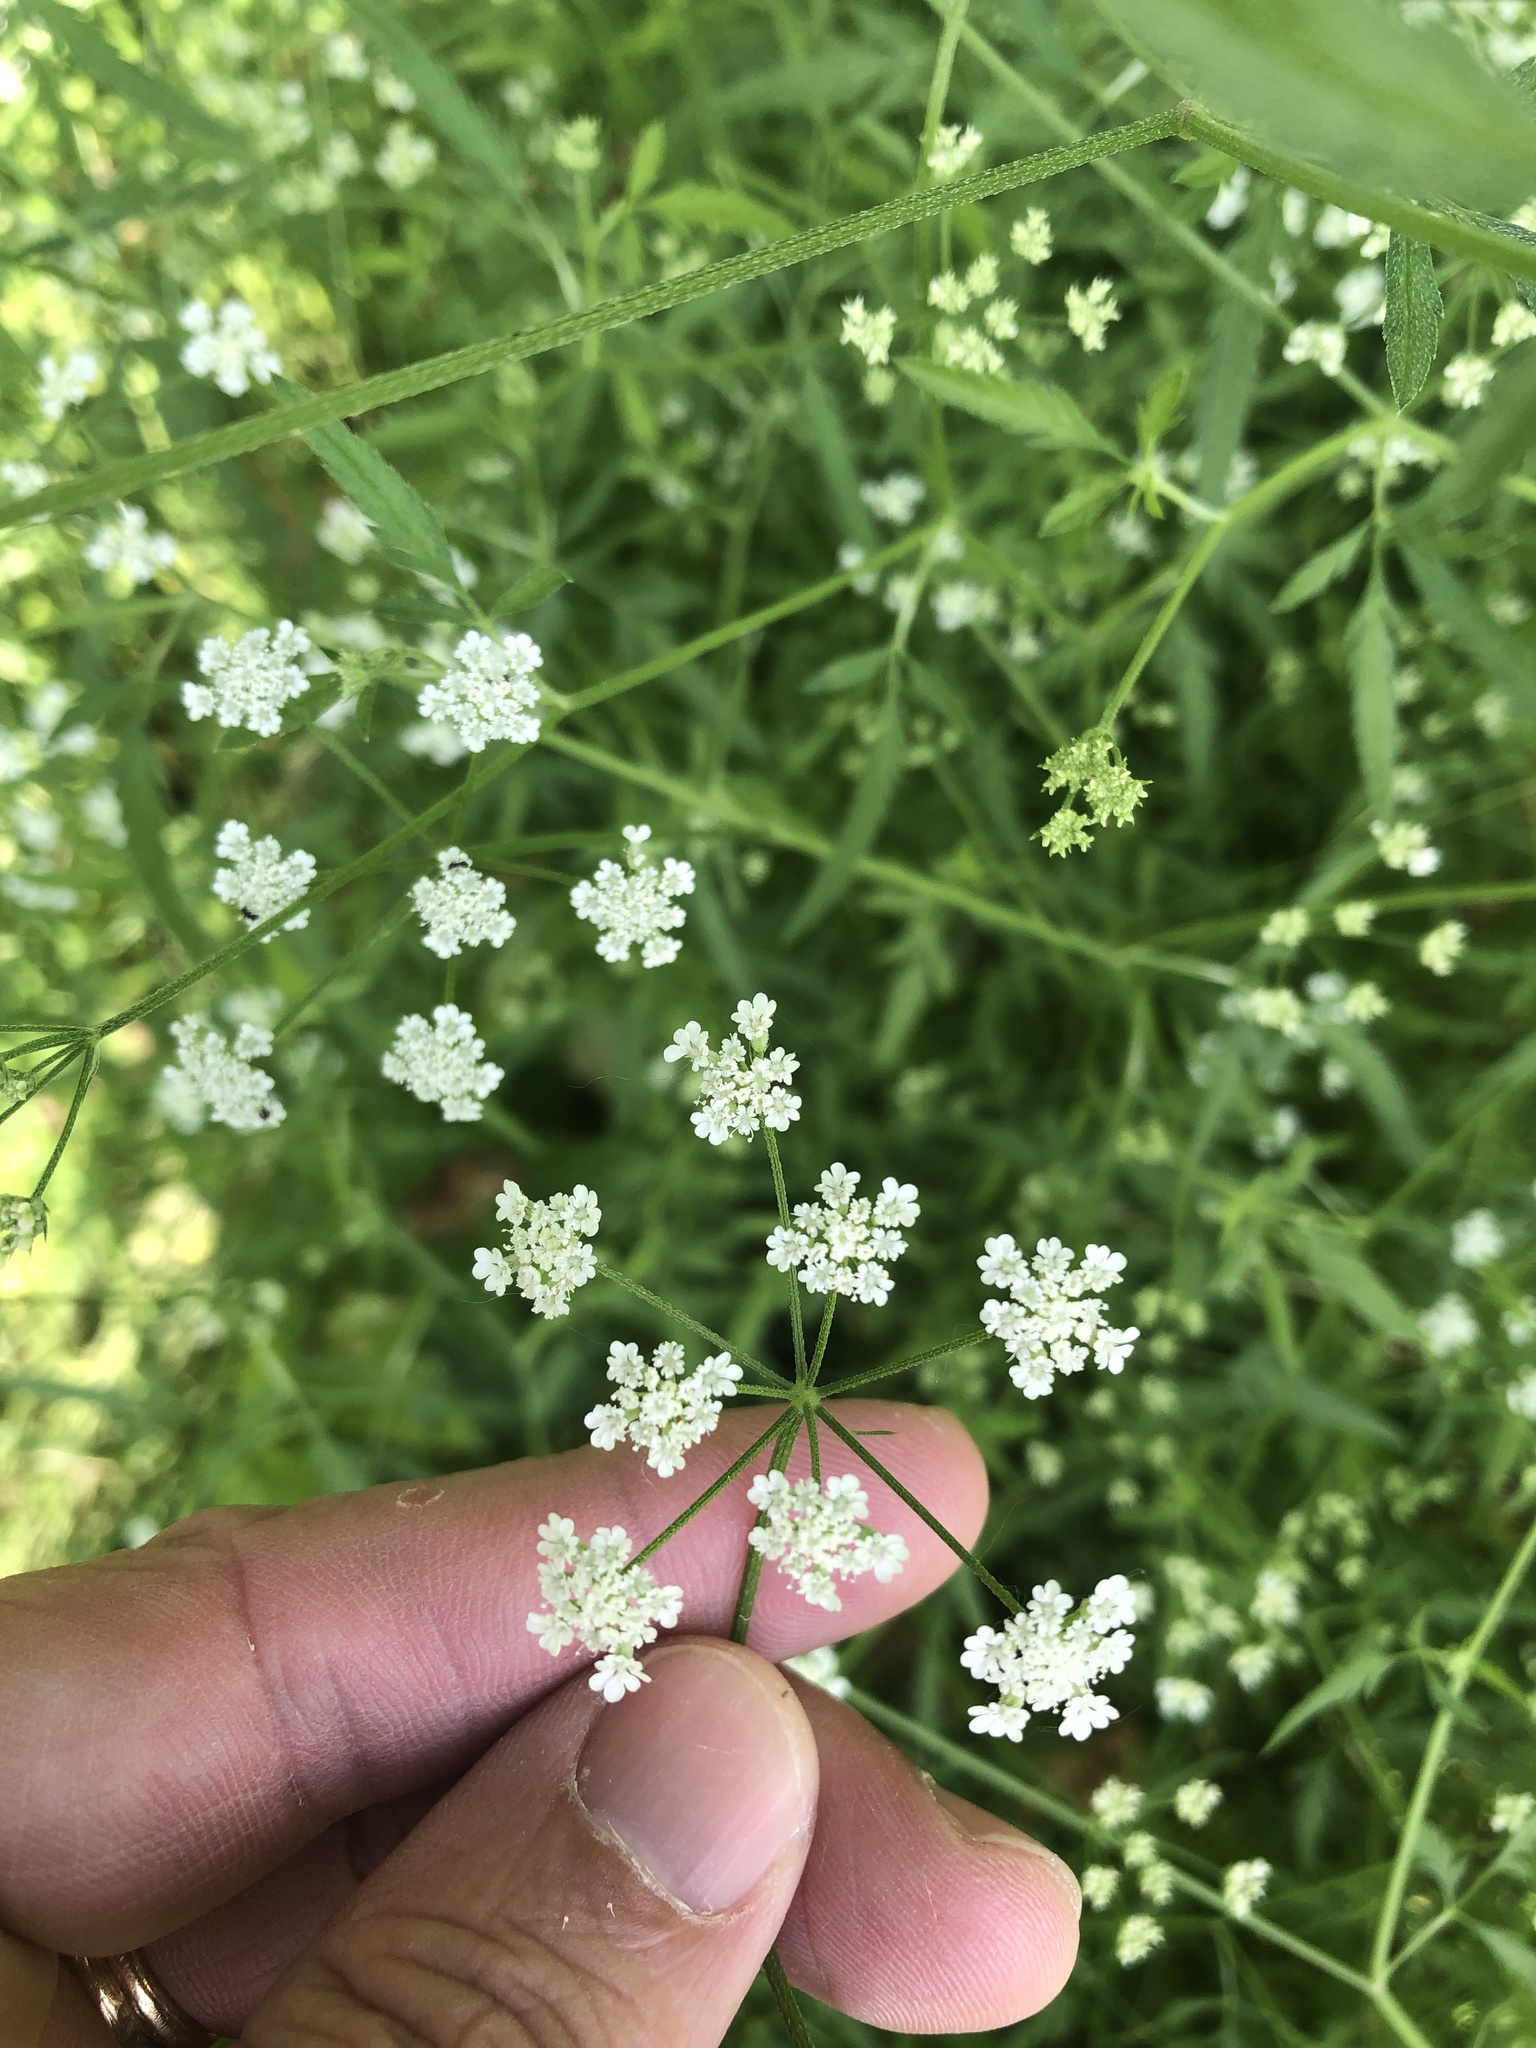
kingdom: Plantae
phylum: Tracheophyta
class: Magnoliopsida
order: Apiales
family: Apiaceae
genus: Torilis
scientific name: Torilis arvensis
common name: Spreading hedge-parsley
